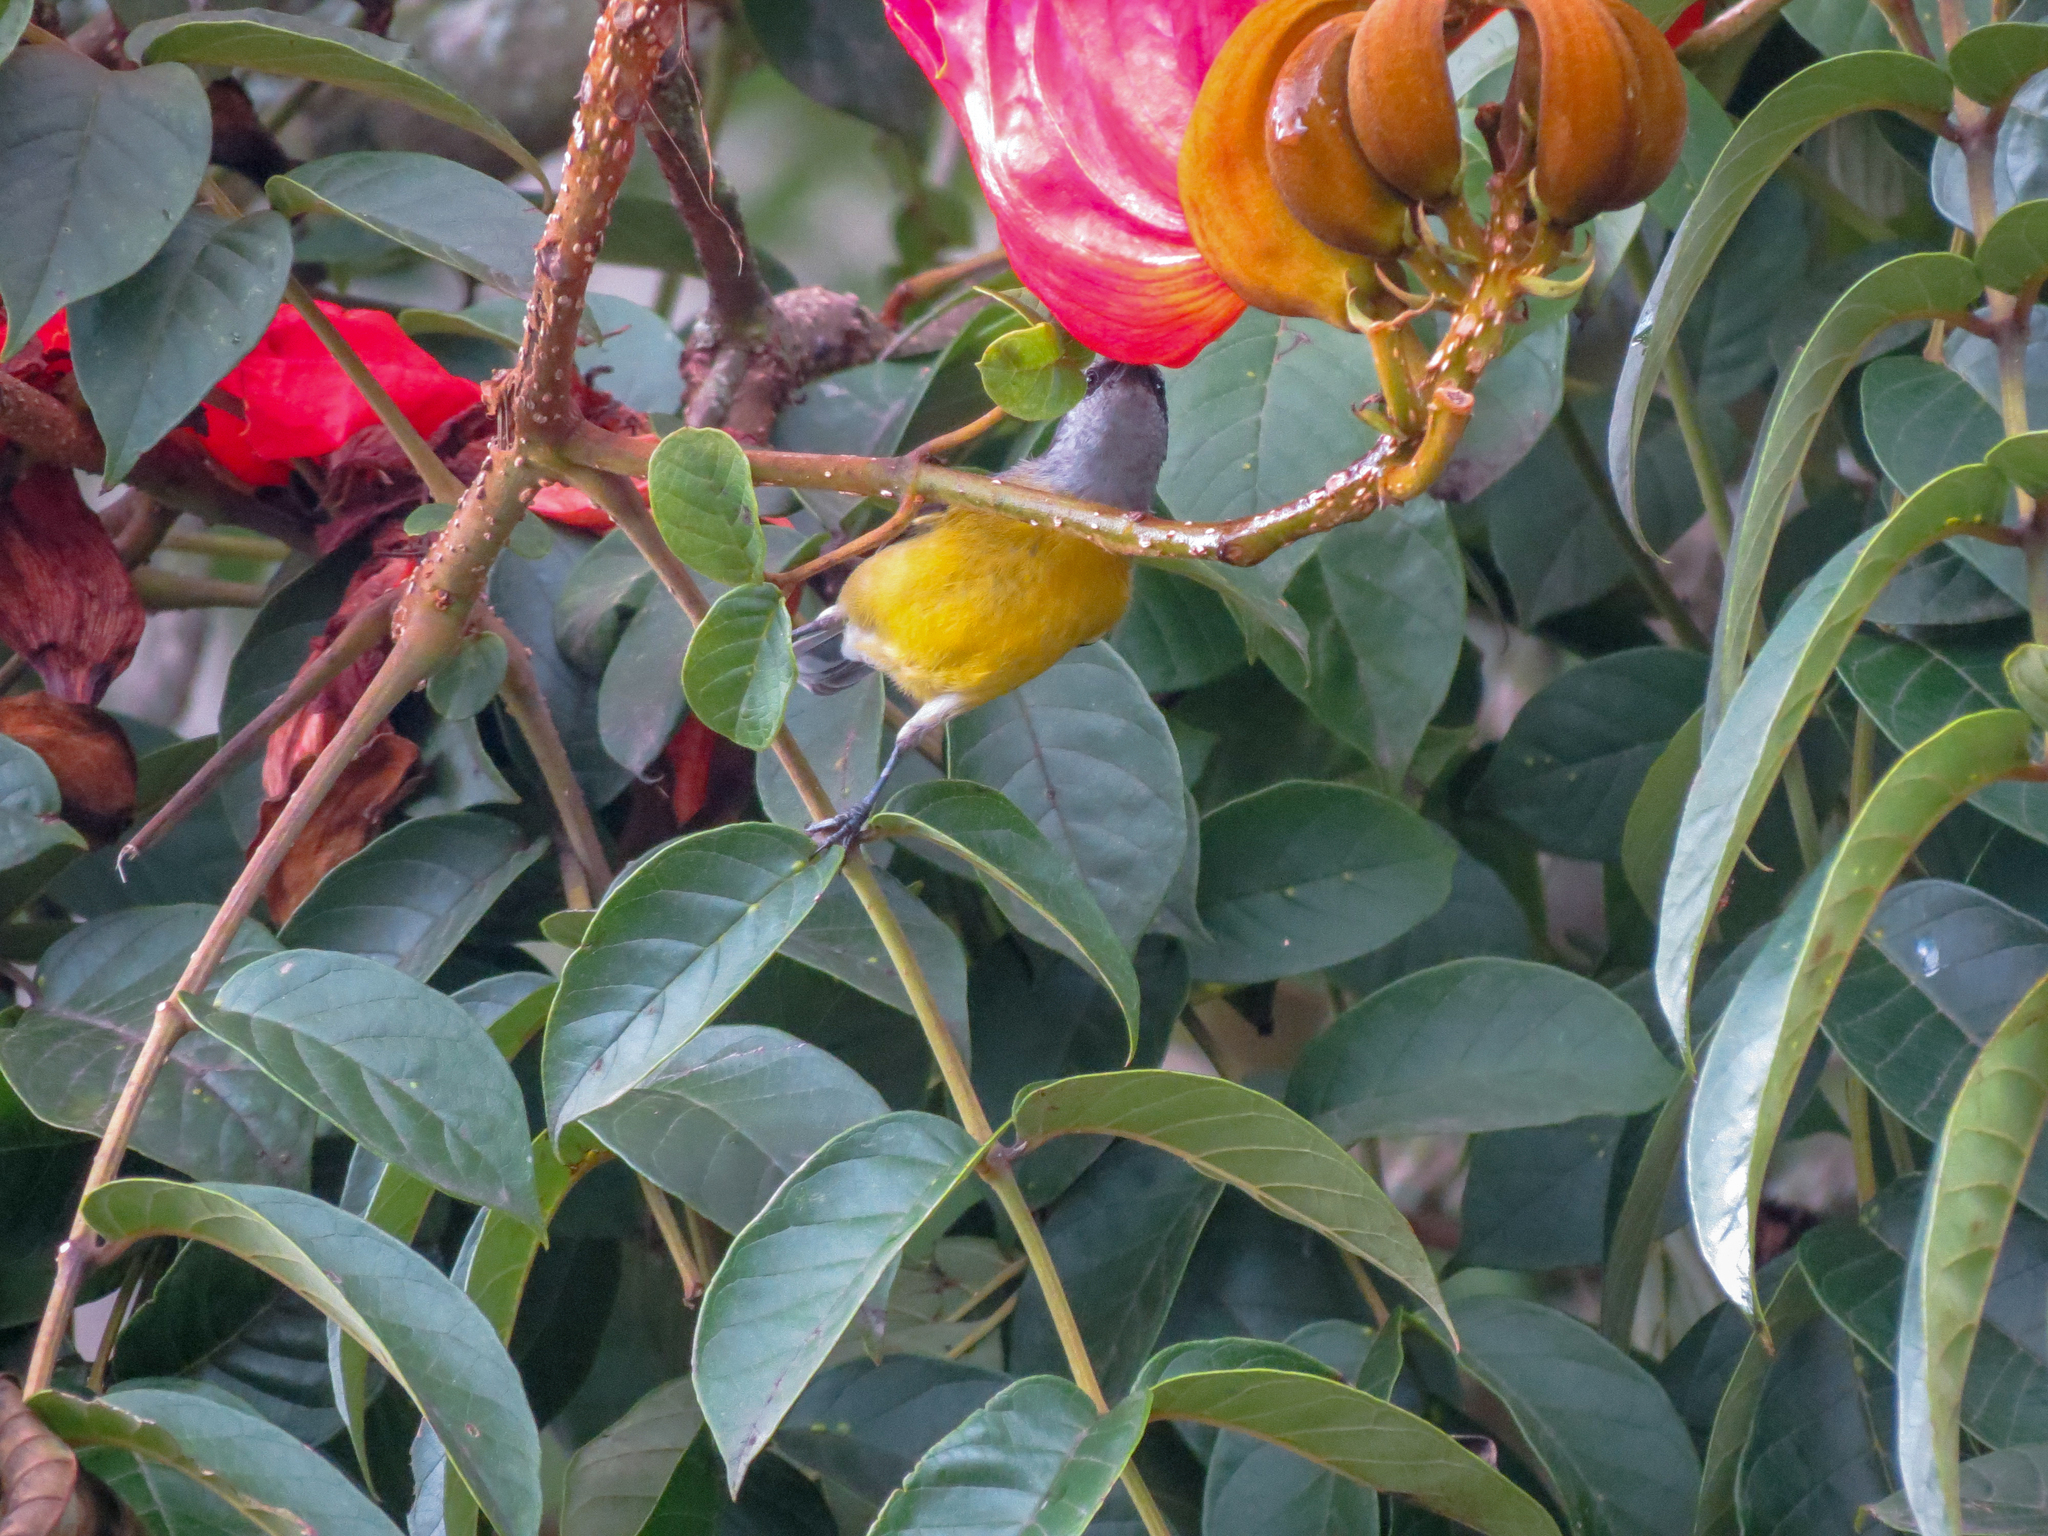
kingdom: Animalia
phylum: Chordata
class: Aves
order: Passeriformes
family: Thraupidae
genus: Coereba
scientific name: Coereba flaveola
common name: Bananaquit
